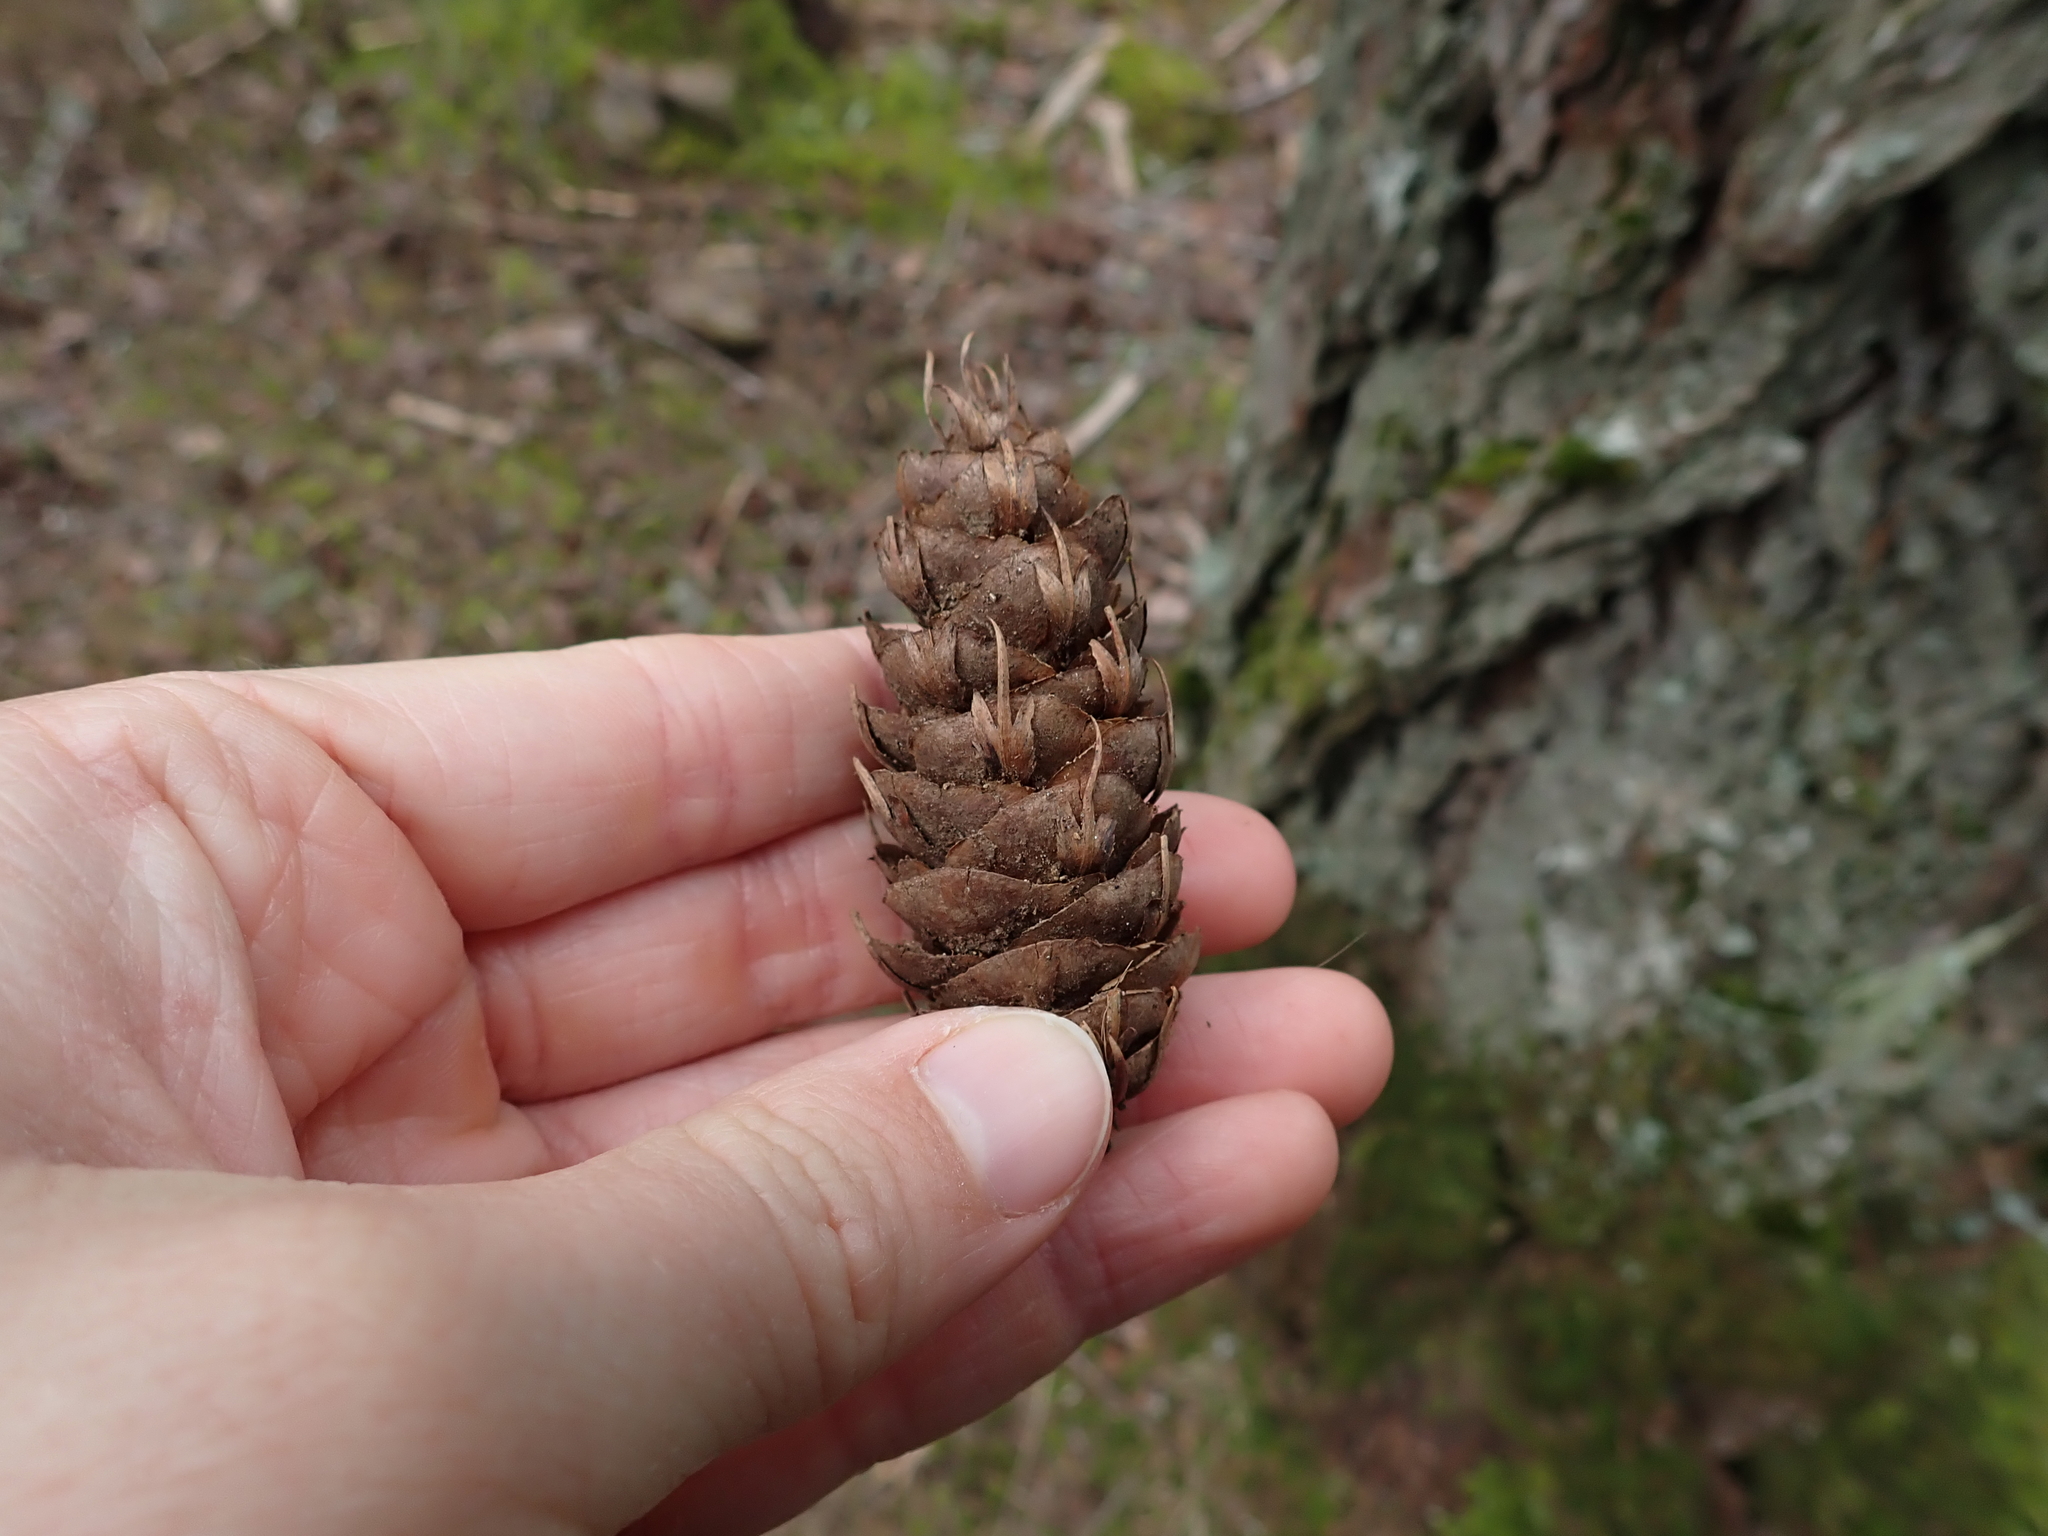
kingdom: Plantae
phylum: Tracheophyta
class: Pinopsida
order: Pinales
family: Pinaceae
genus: Pseudotsuga
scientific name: Pseudotsuga menziesii
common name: Douglas fir
